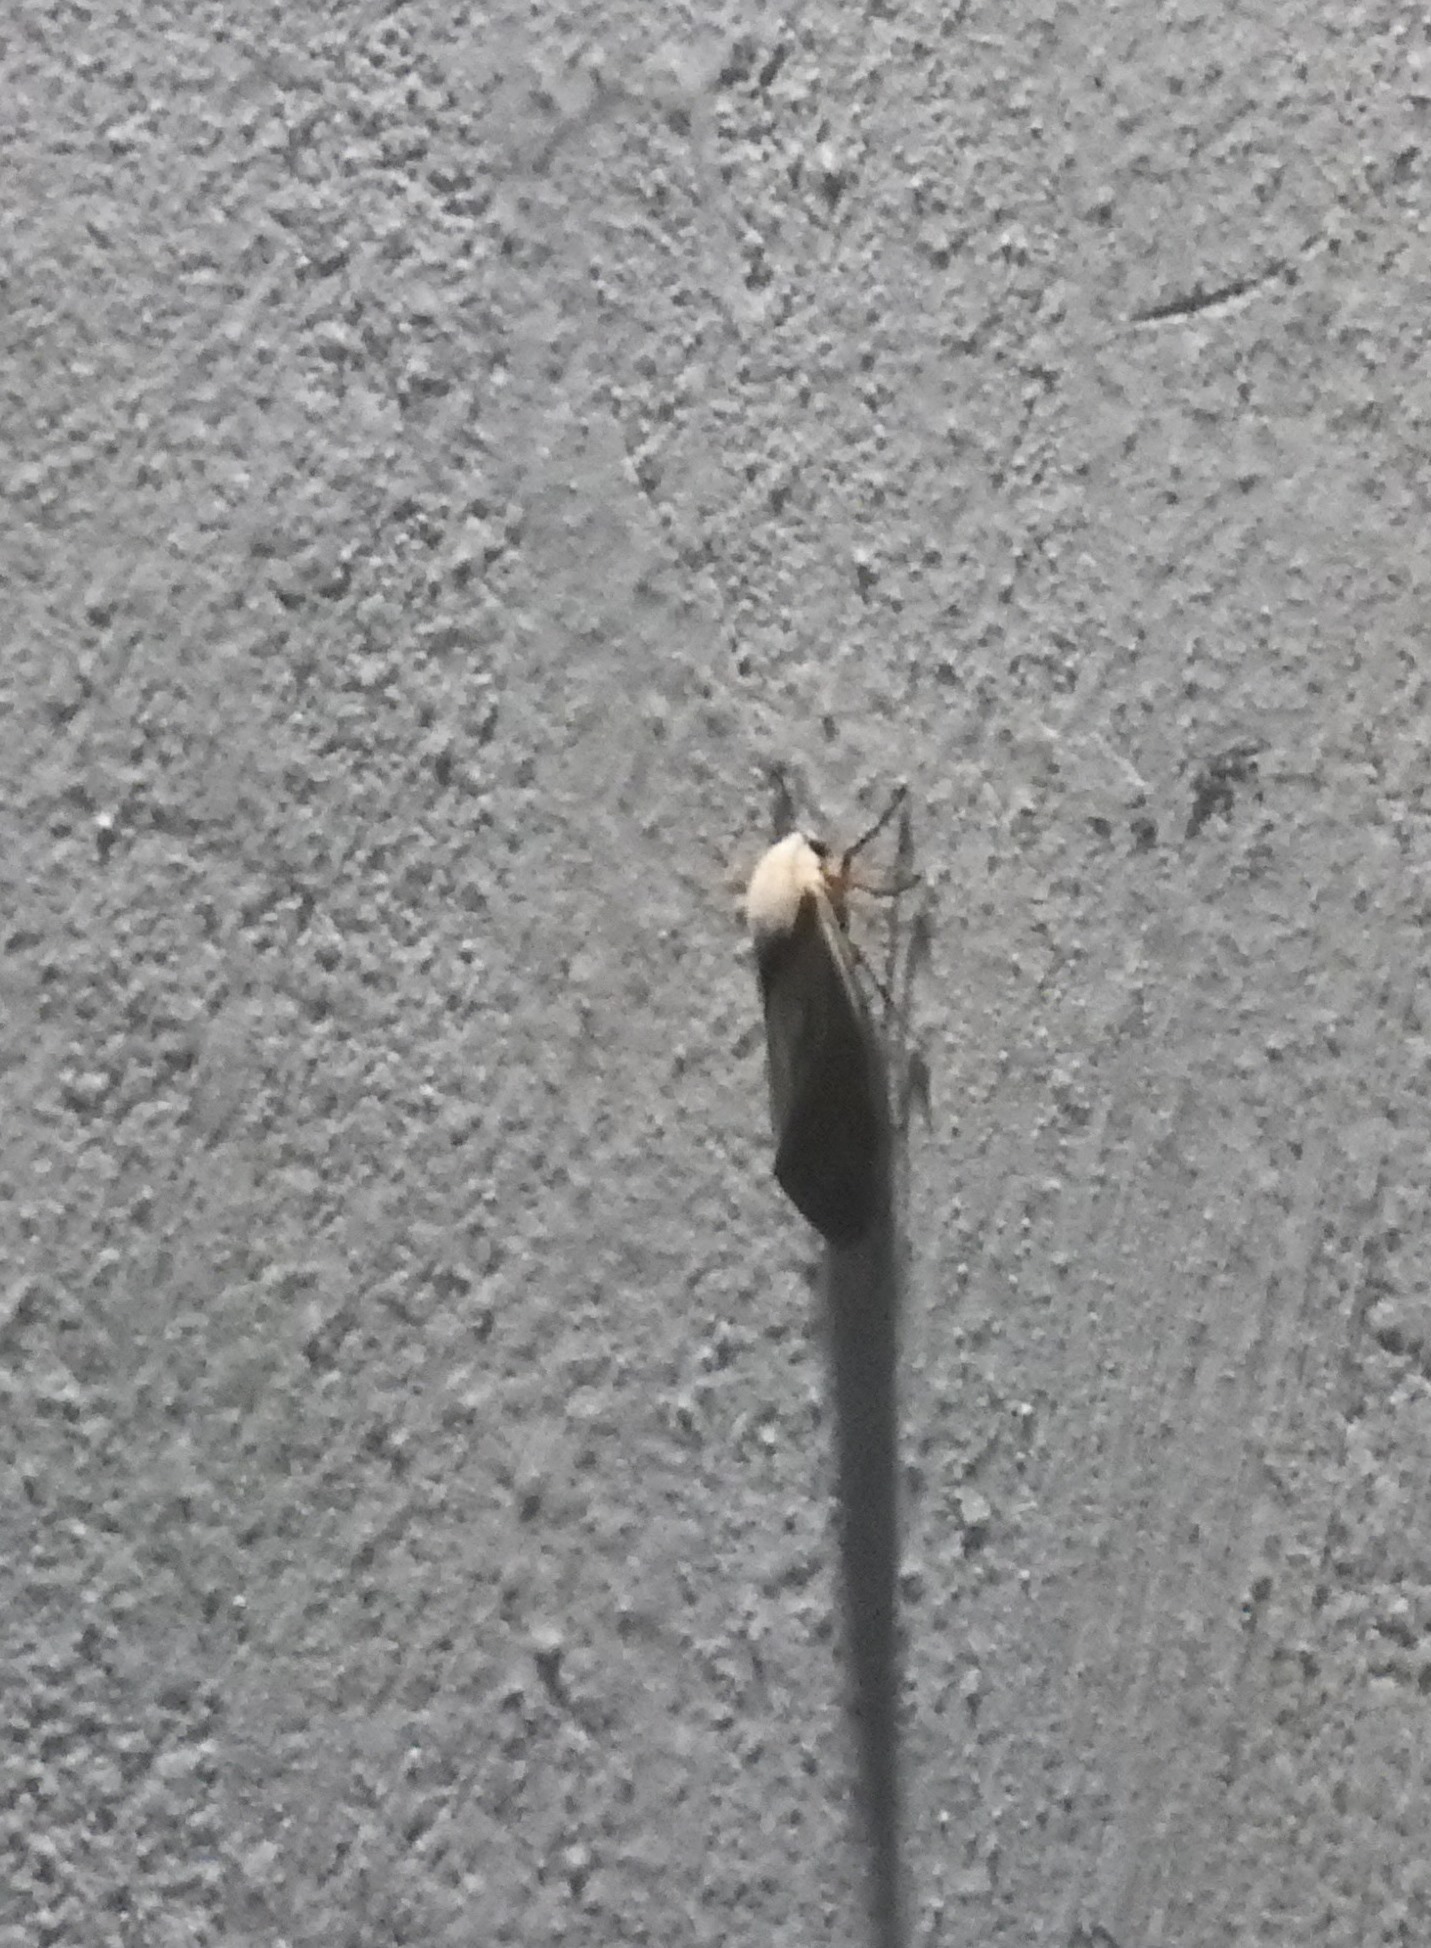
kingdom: Animalia
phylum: Arthropoda
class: Insecta
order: Lepidoptera
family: Erebidae
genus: Creatonotos
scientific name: Creatonotos transiens
